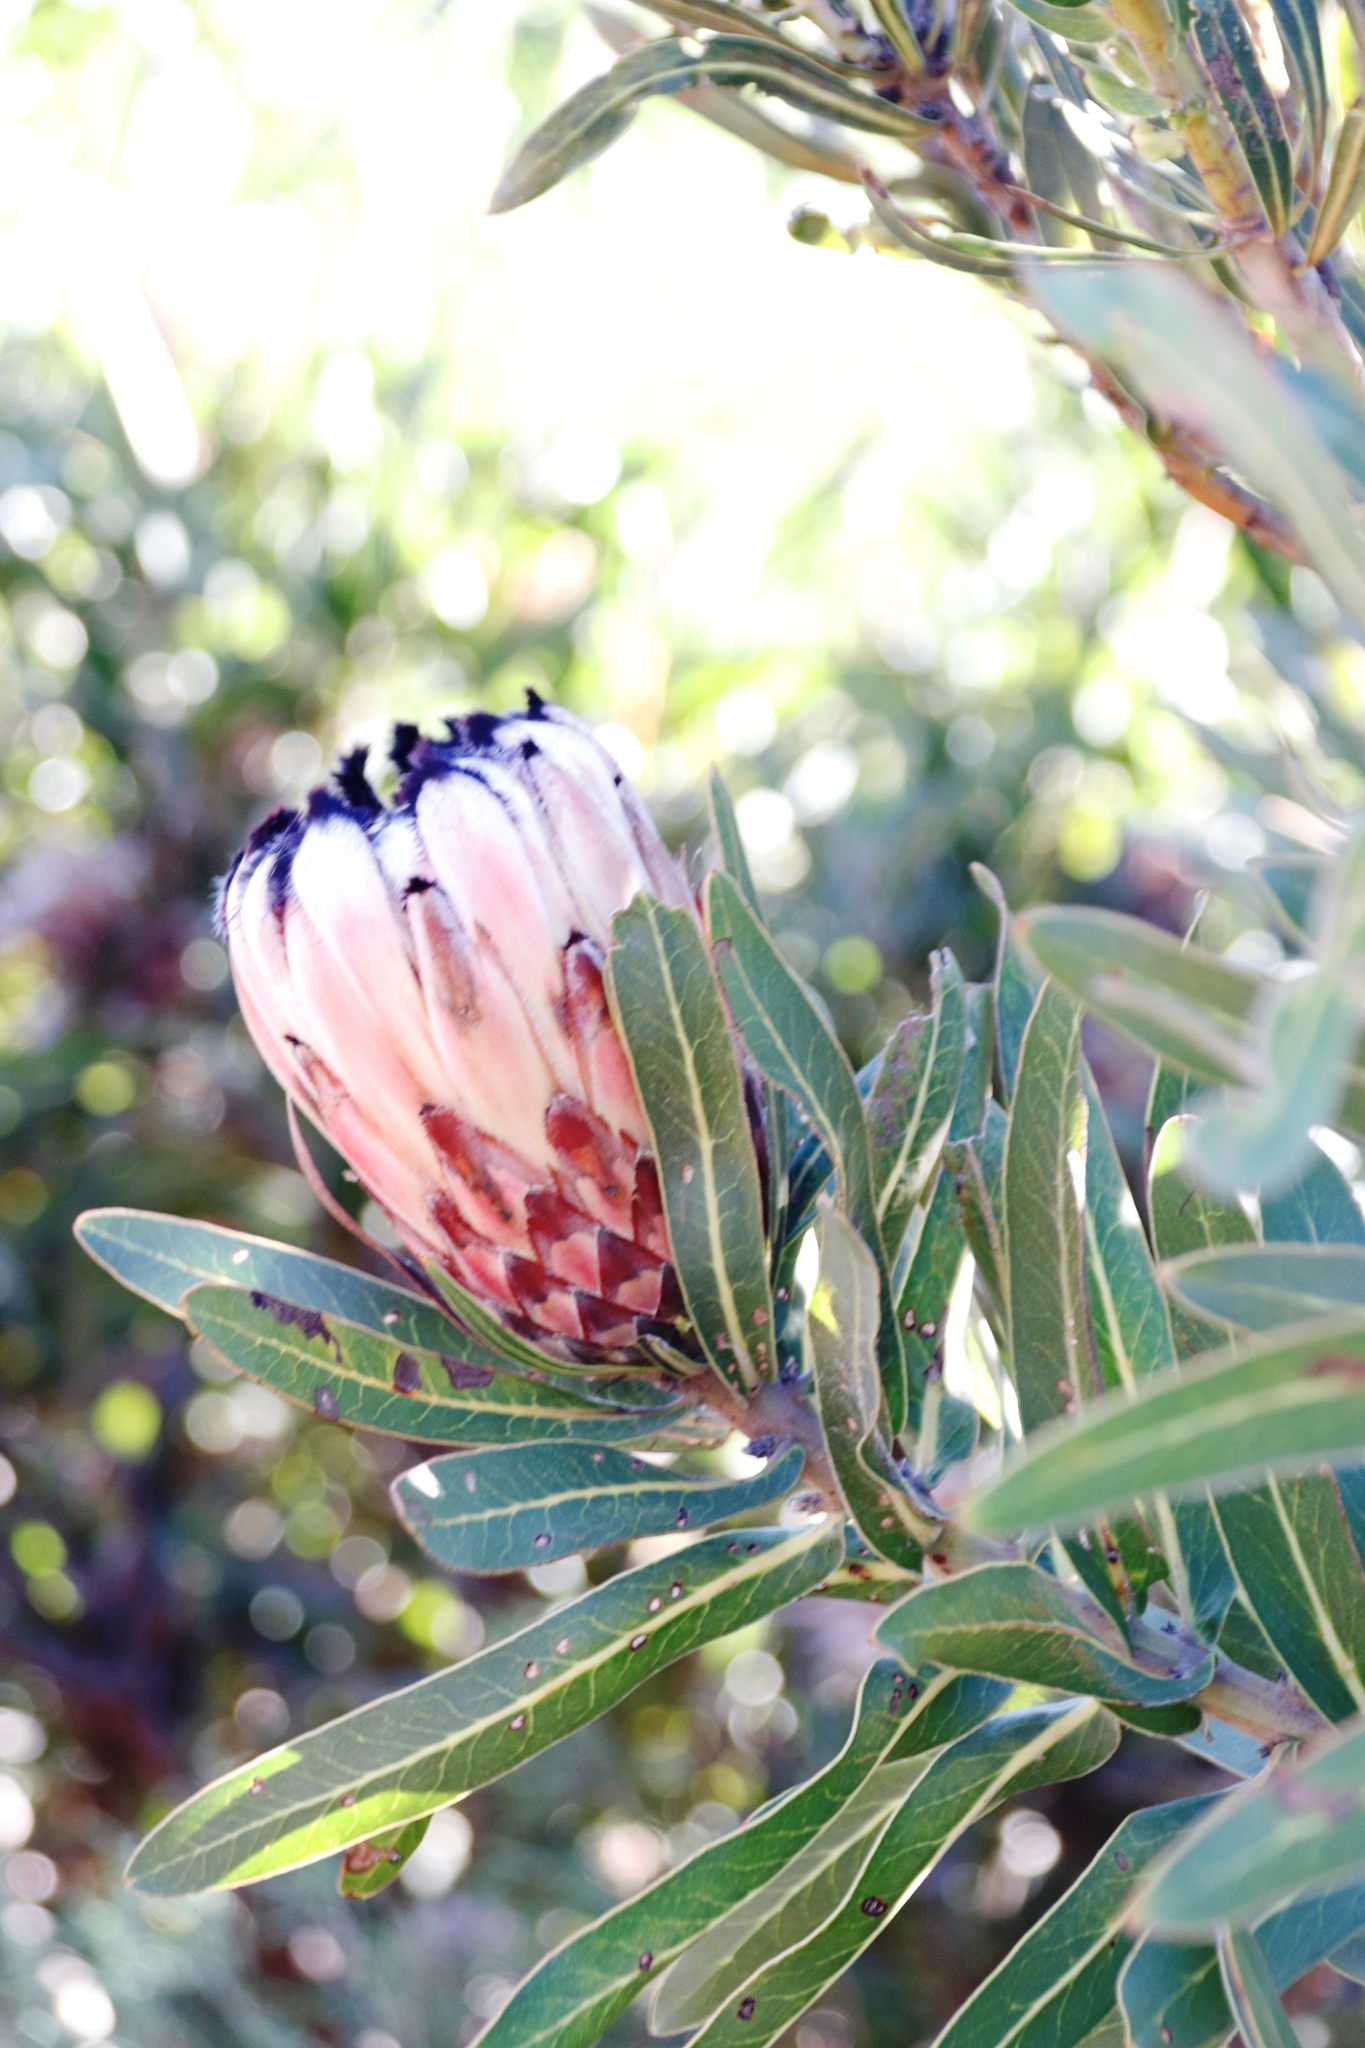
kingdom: Plantae
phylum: Tracheophyta
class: Magnoliopsida
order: Proteales
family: Proteaceae
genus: Protea
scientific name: Protea
